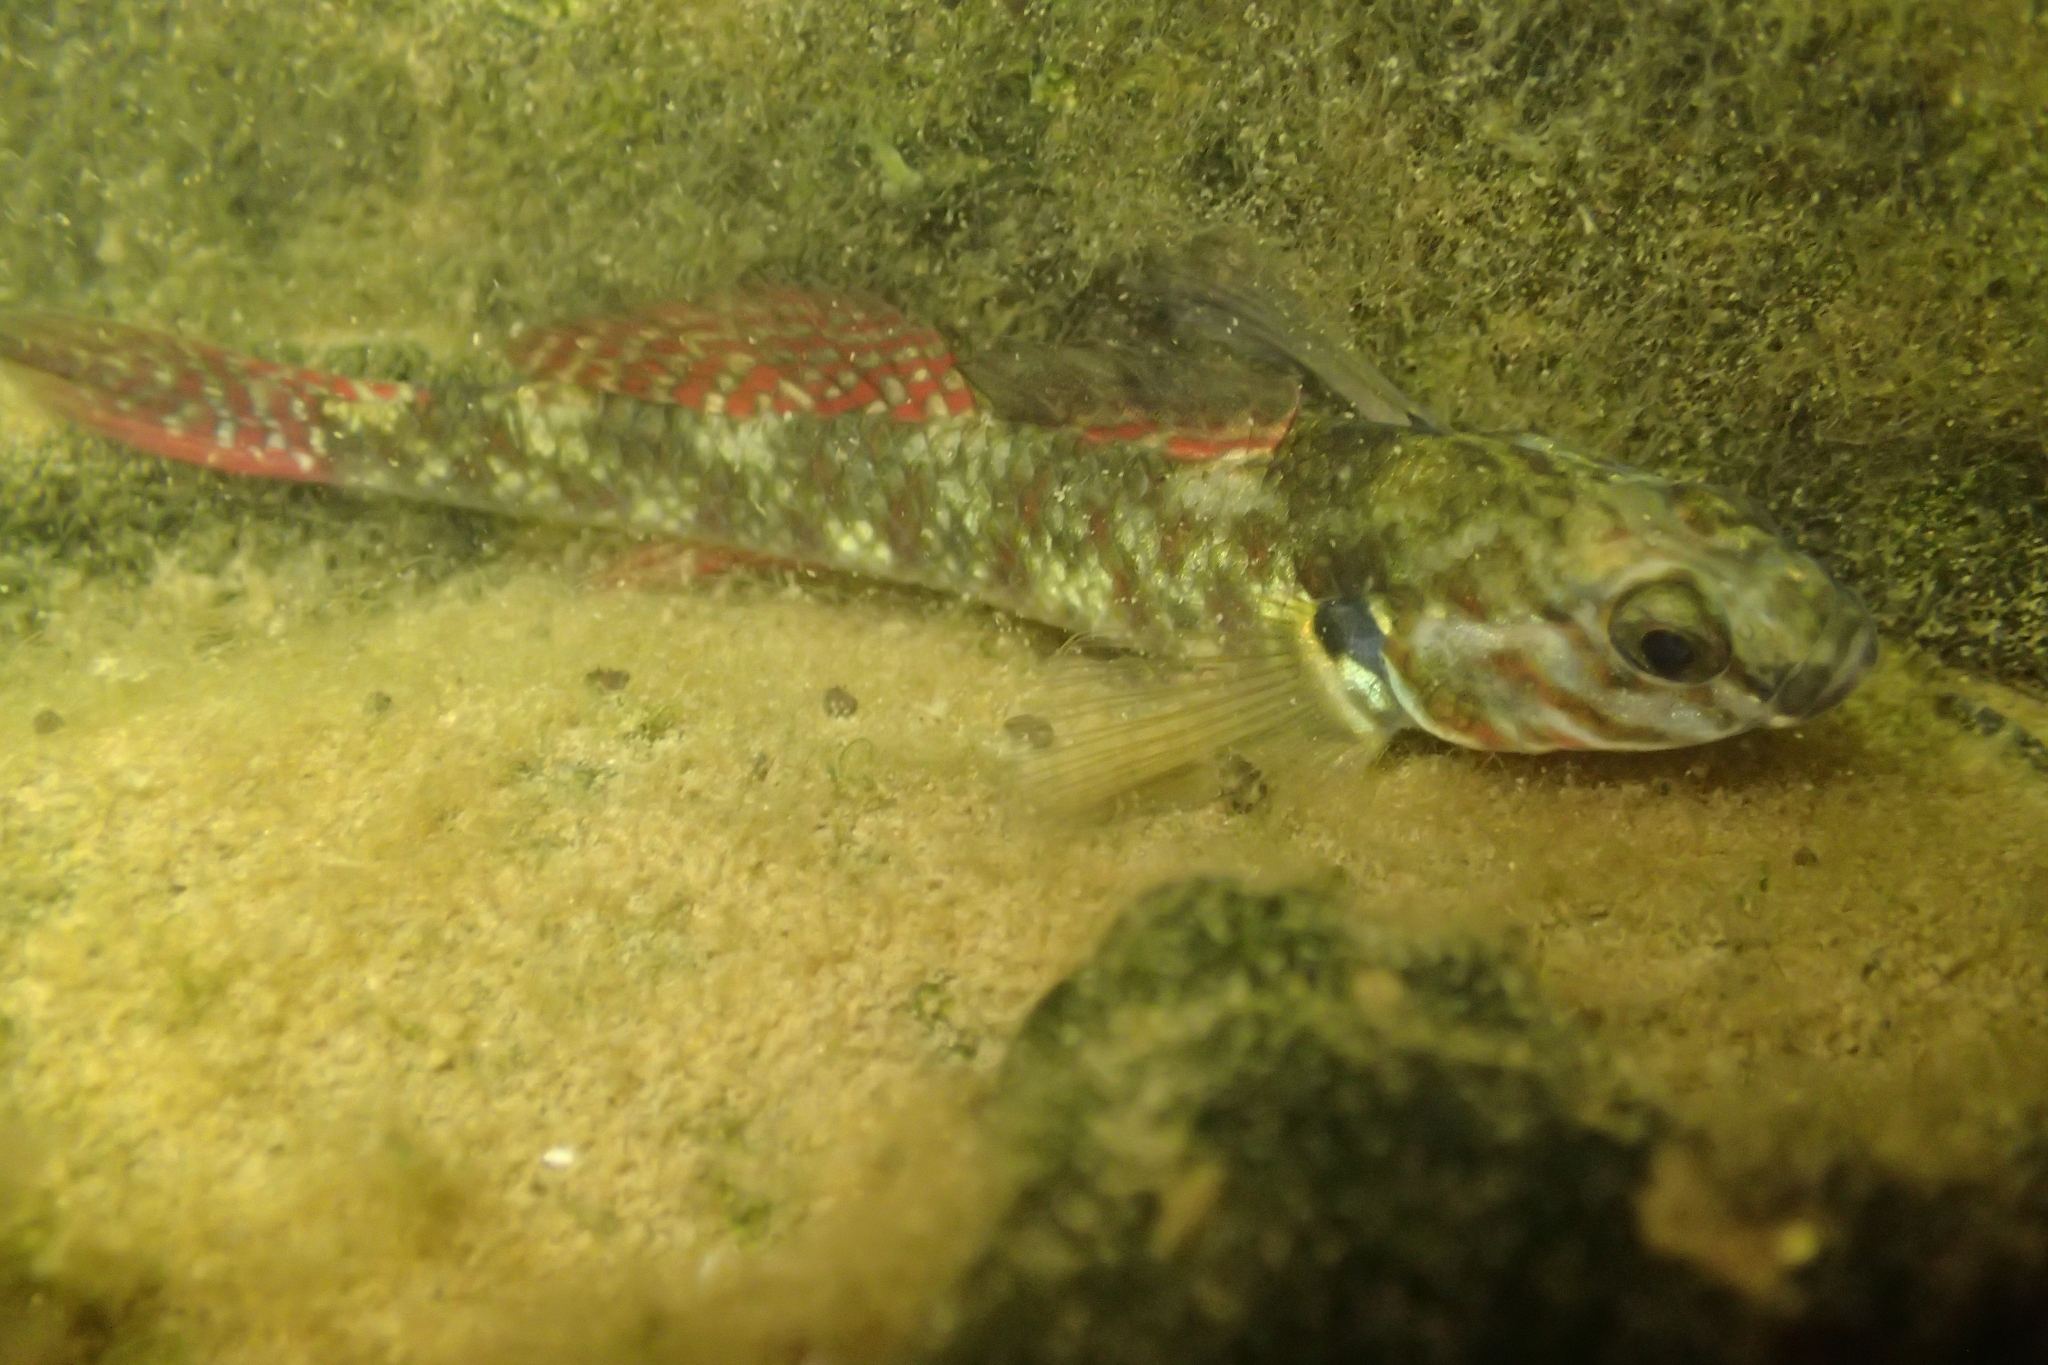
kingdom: Animalia
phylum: Chordata
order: Perciformes
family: Eleotridae
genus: Gobiomorphus
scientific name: Gobiomorphus huttoni
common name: Redfin bully
